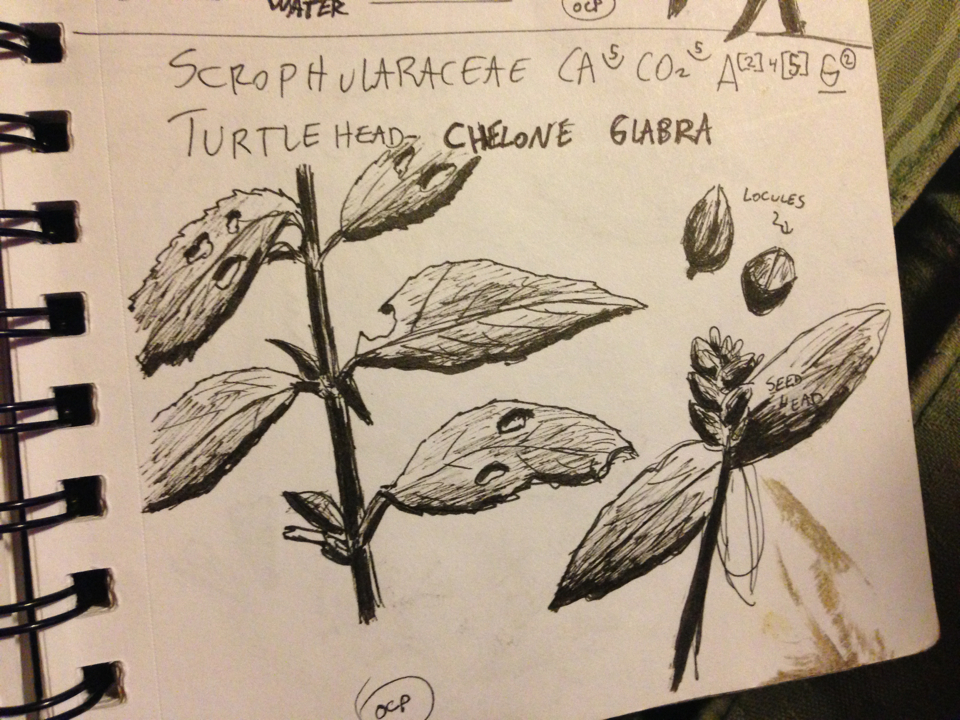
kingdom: Plantae
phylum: Tracheophyta
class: Magnoliopsida
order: Lamiales
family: Plantaginaceae
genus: Chelone
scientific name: Chelone glabra
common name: Snakehead
